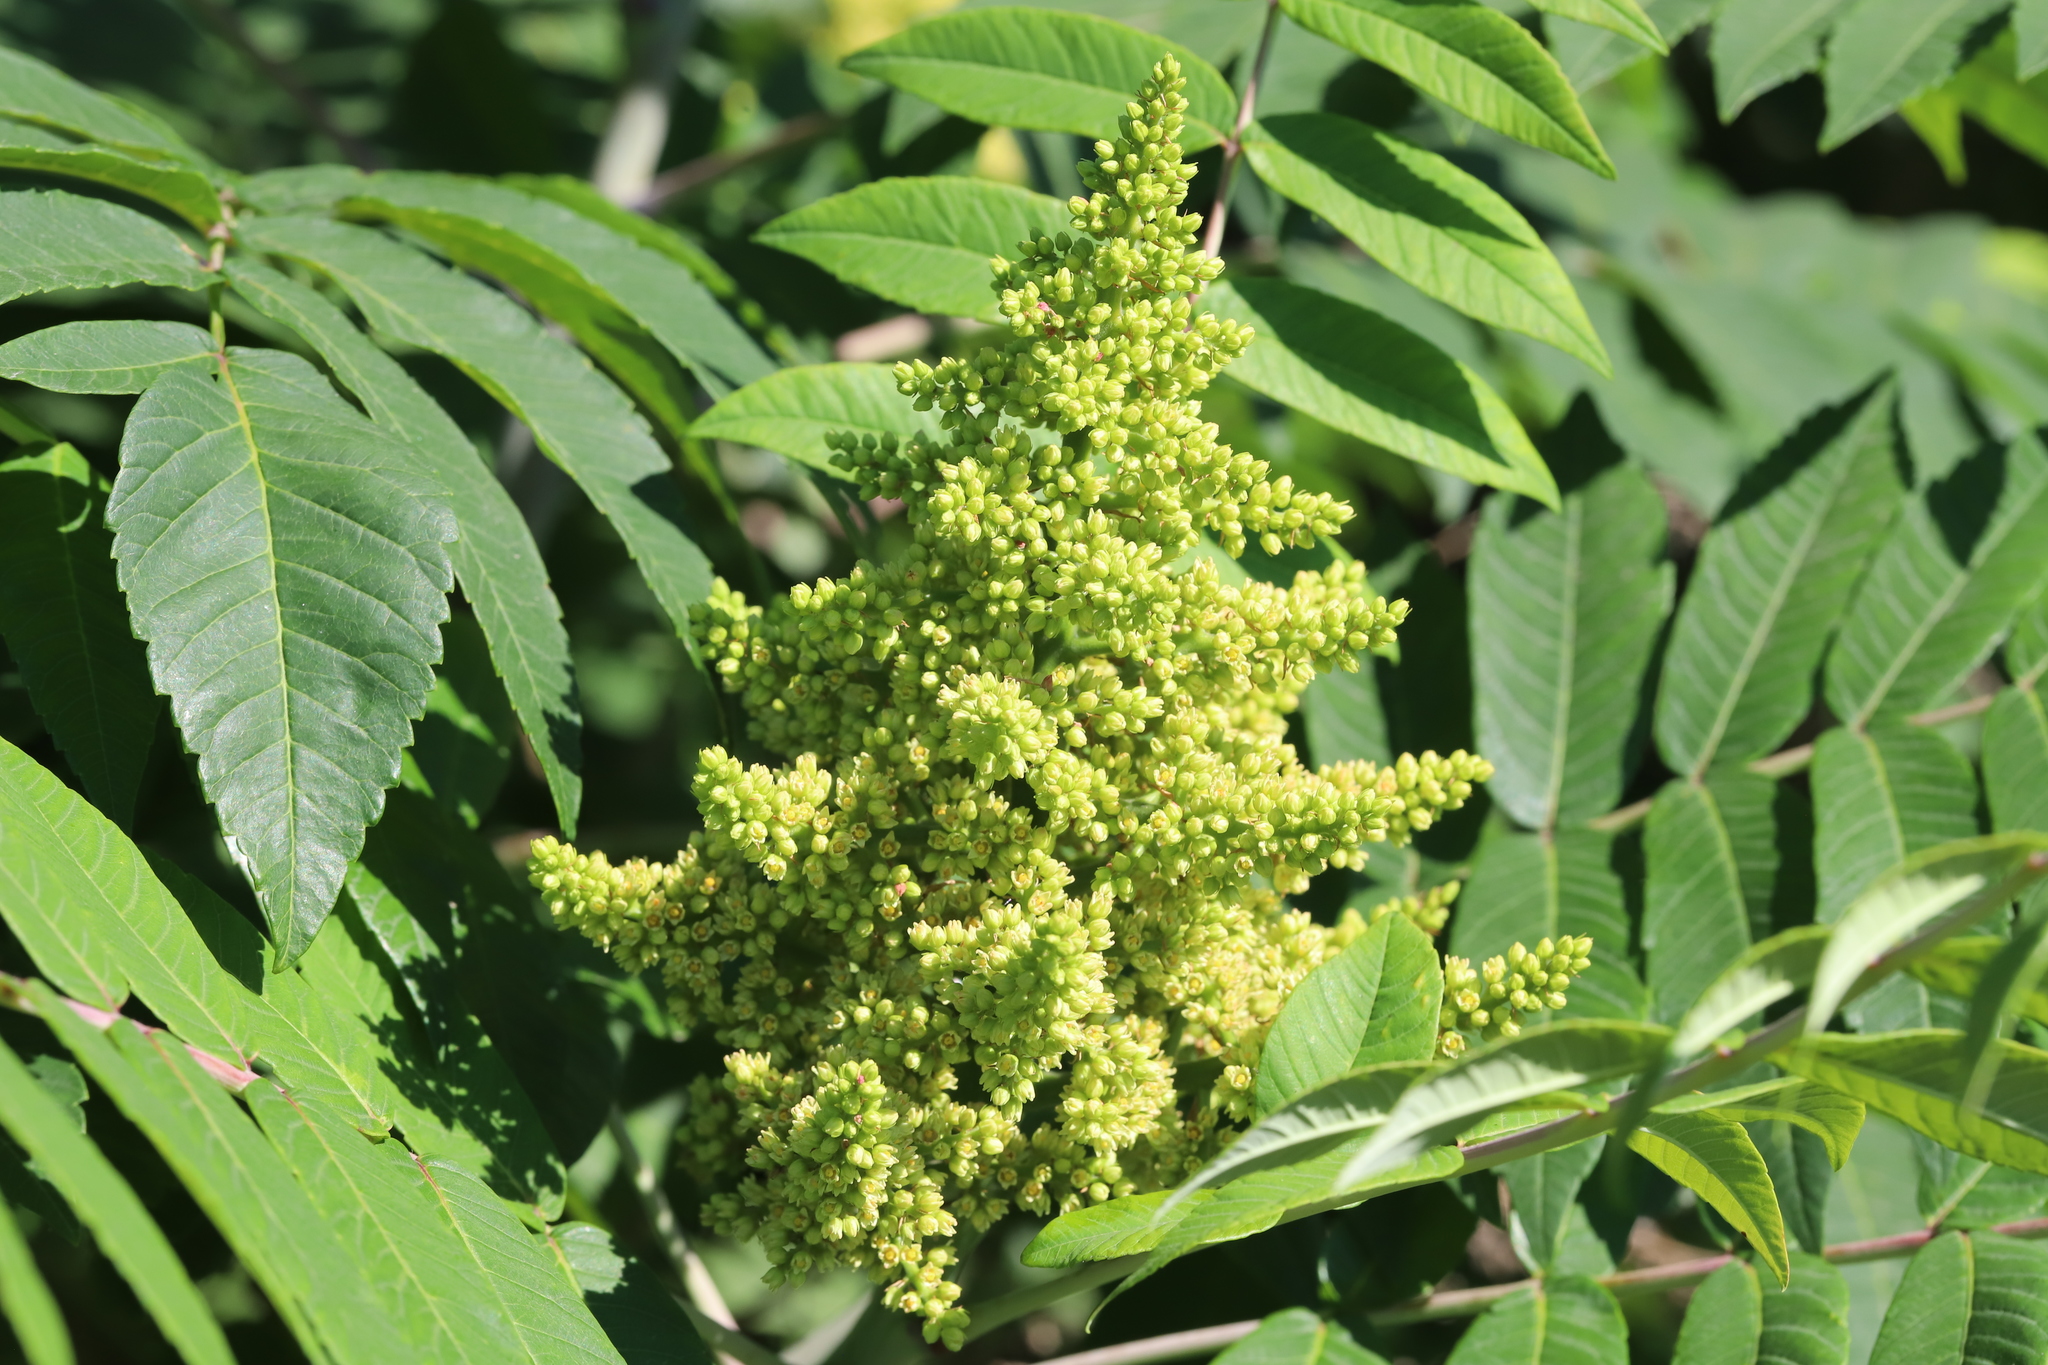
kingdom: Plantae
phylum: Tracheophyta
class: Magnoliopsida
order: Sapindales
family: Anacardiaceae
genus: Rhus
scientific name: Rhus glabra
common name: Scarlet sumac
